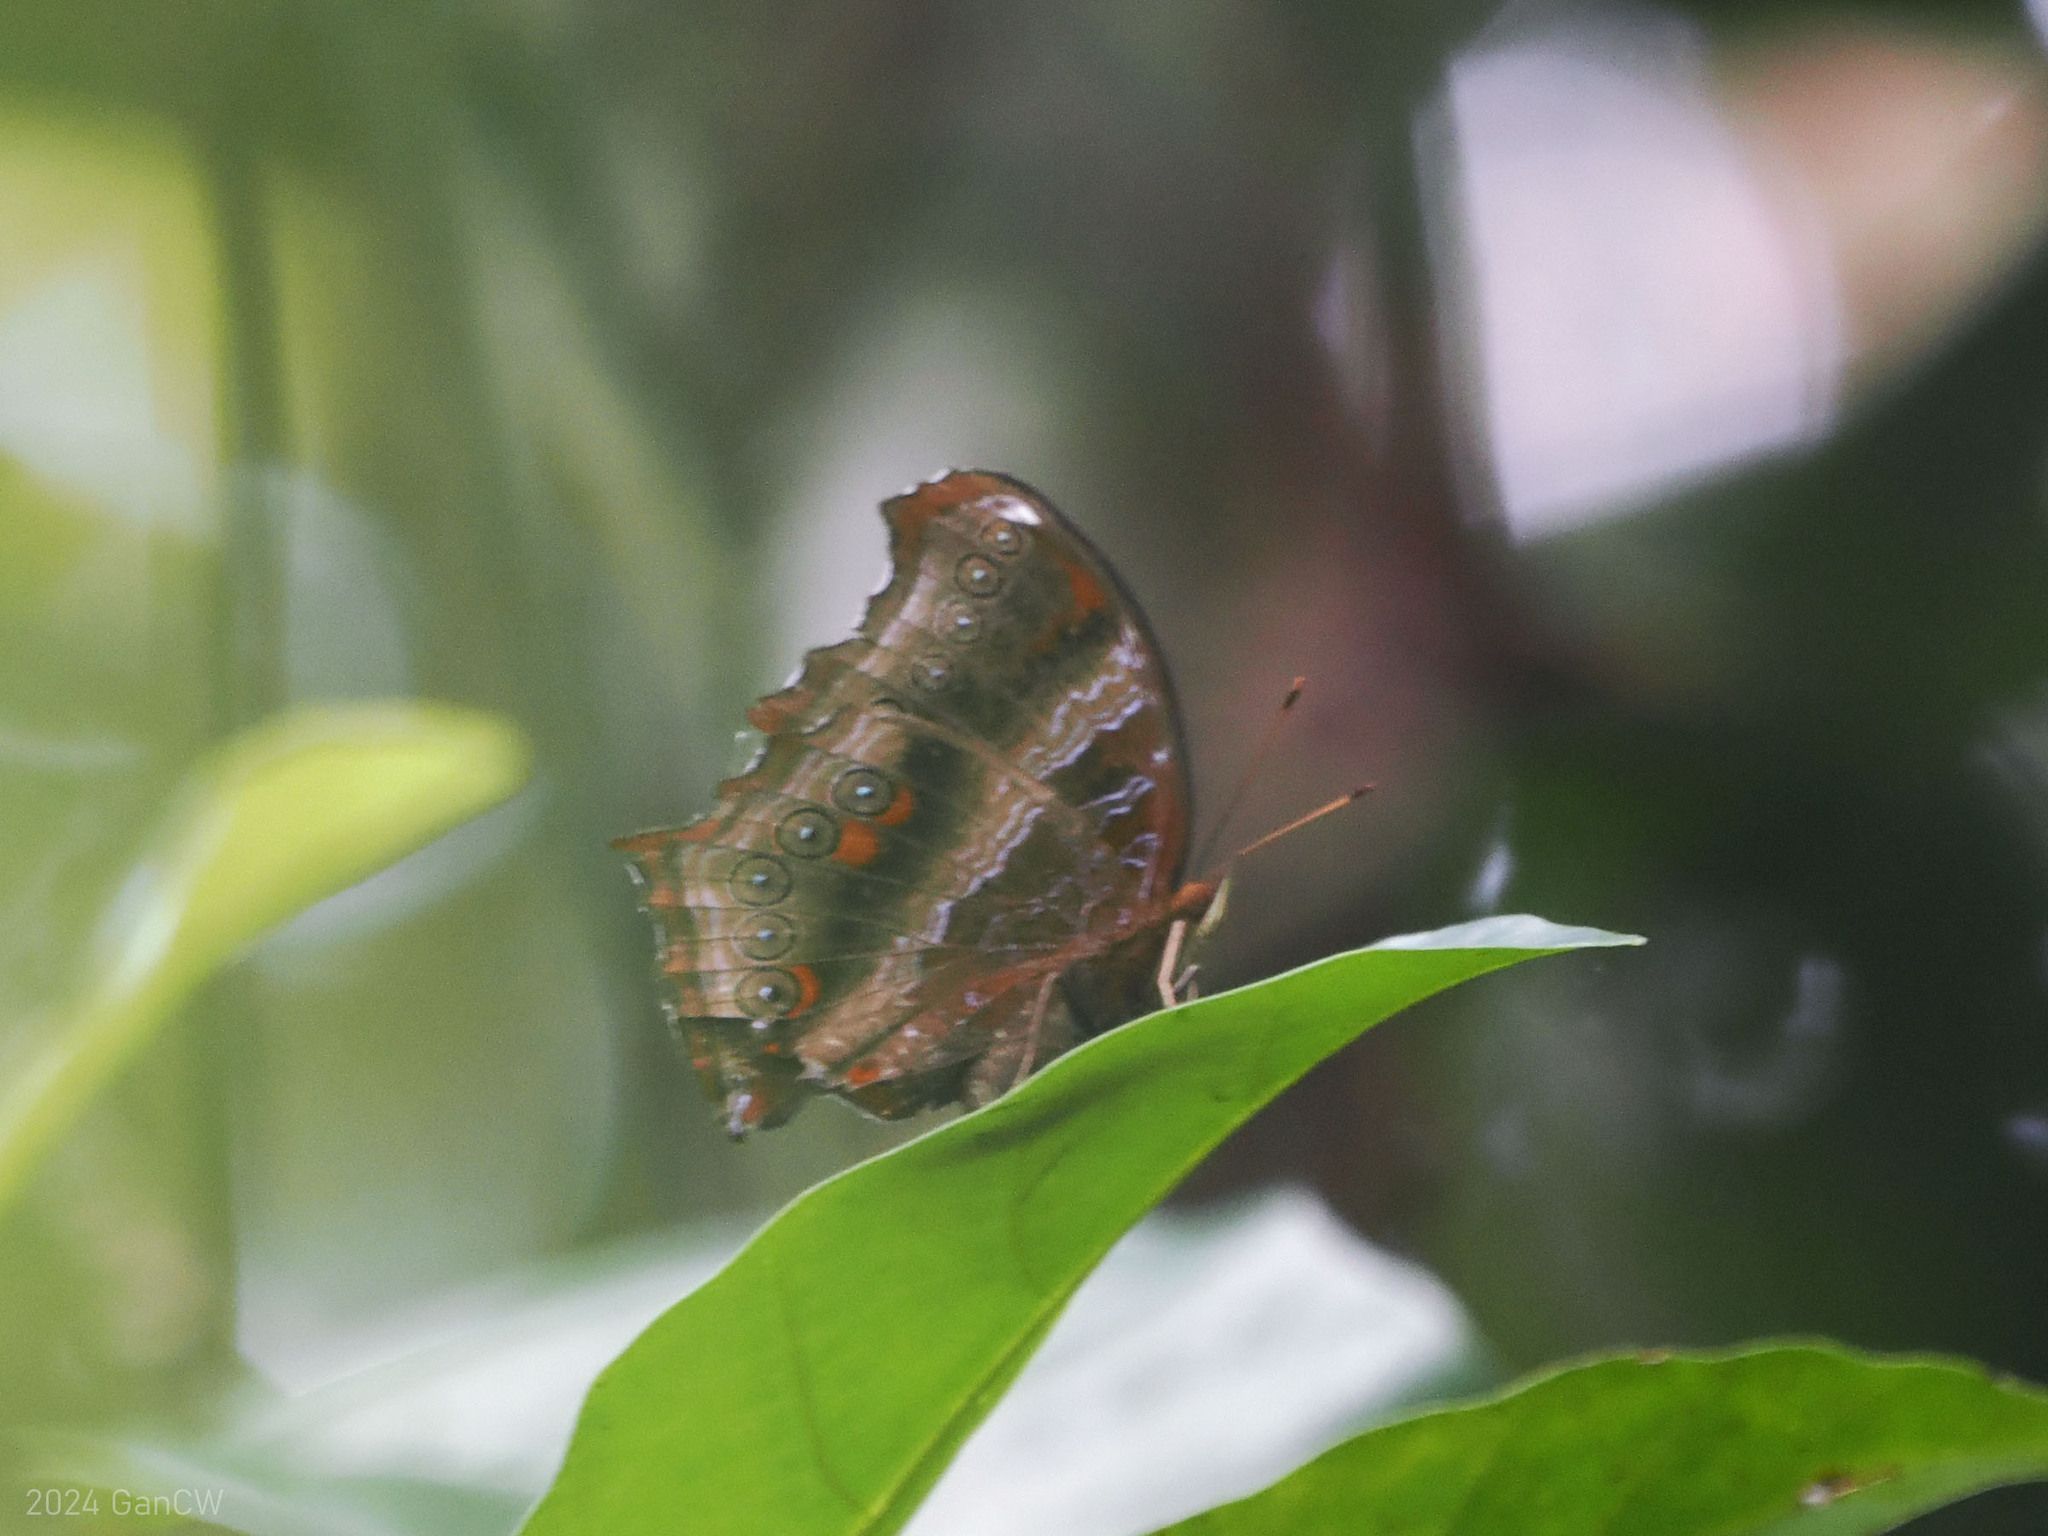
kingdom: Animalia
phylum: Arthropoda
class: Insecta
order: Lepidoptera
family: Nymphalidae
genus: Rhinopalpa
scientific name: Rhinopalpa polynice
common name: Wizard
